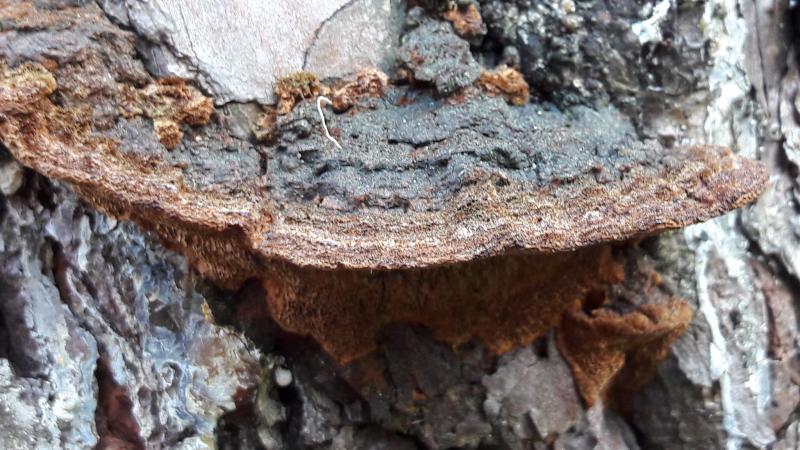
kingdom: Fungi
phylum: Basidiomycota
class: Agaricomycetes
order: Hymenochaetales
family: Hymenochaetaceae
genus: Porodaedalea
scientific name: Porodaedalea pini
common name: Pine bracket
